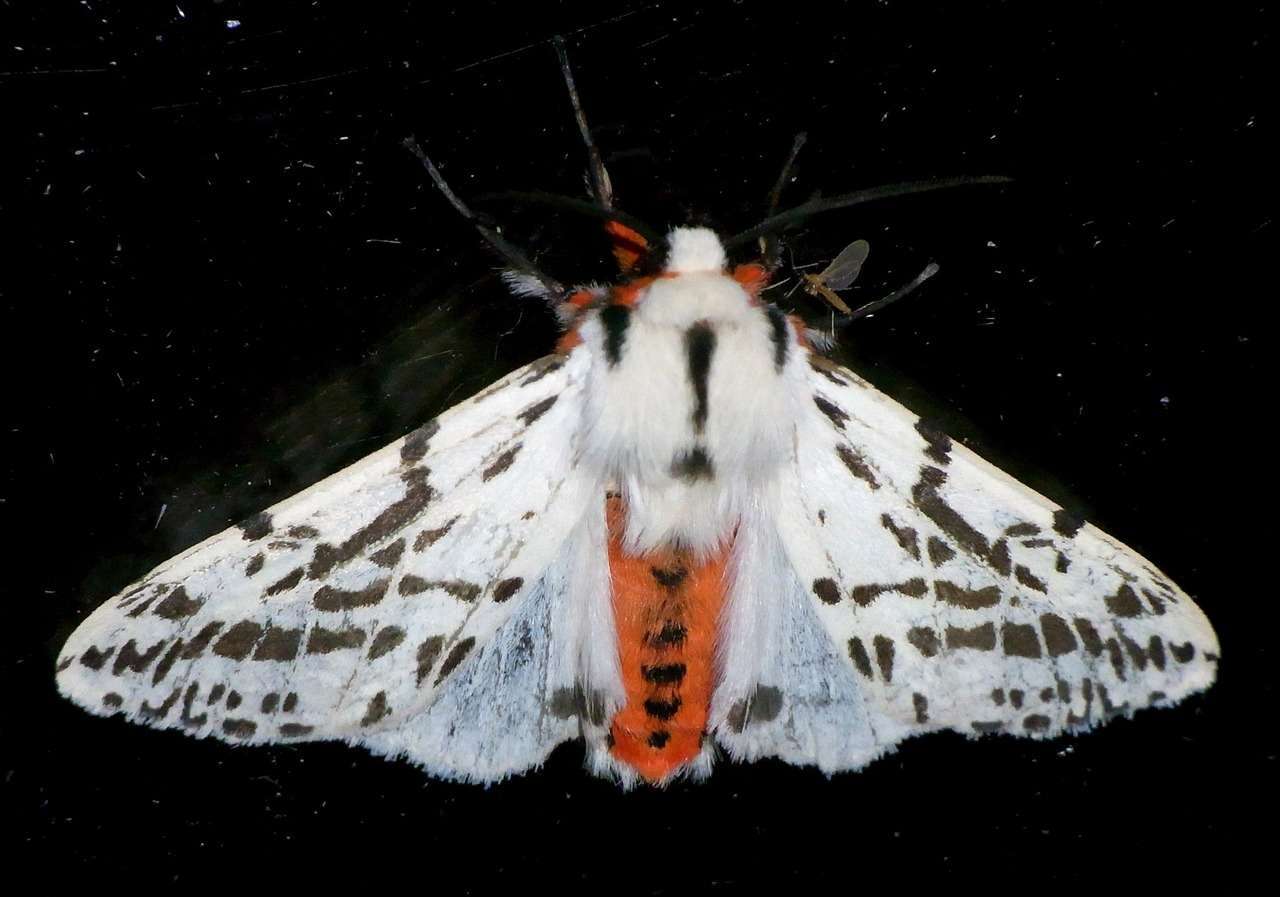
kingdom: Animalia
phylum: Arthropoda
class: Insecta
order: Lepidoptera
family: Erebidae
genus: Ardices
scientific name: Ardices glatignyi
